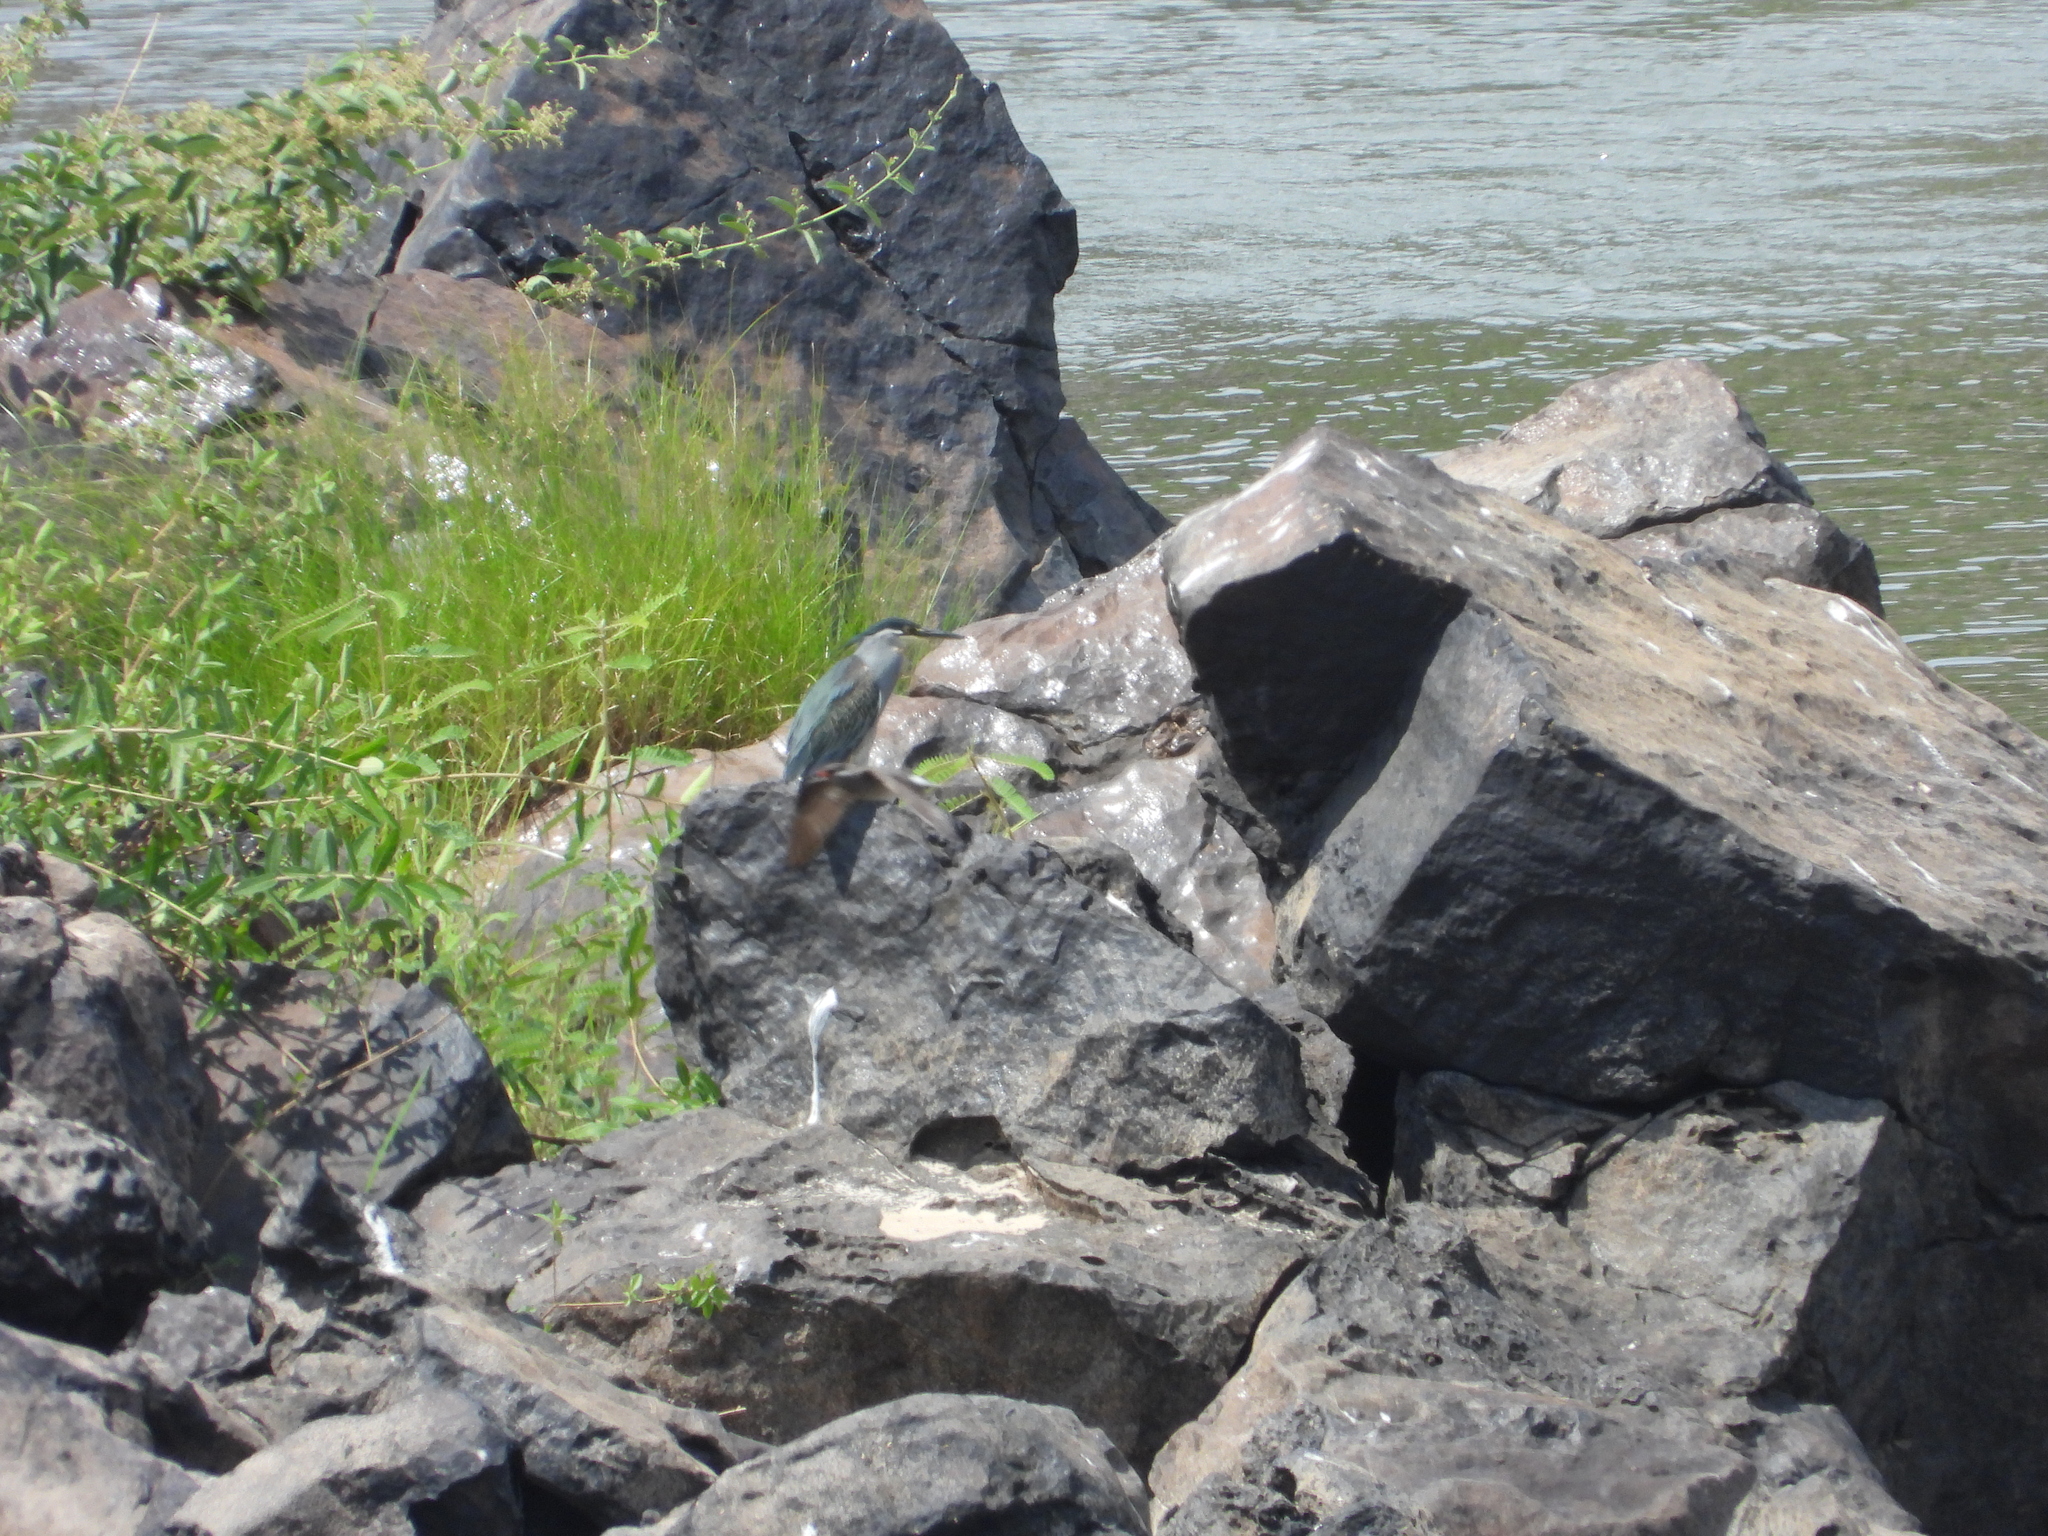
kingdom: Animalia
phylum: Chordata
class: Aves
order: Pelecaniformes
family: Ardeidae
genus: Butorides
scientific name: Butorides striata
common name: Striated heron
